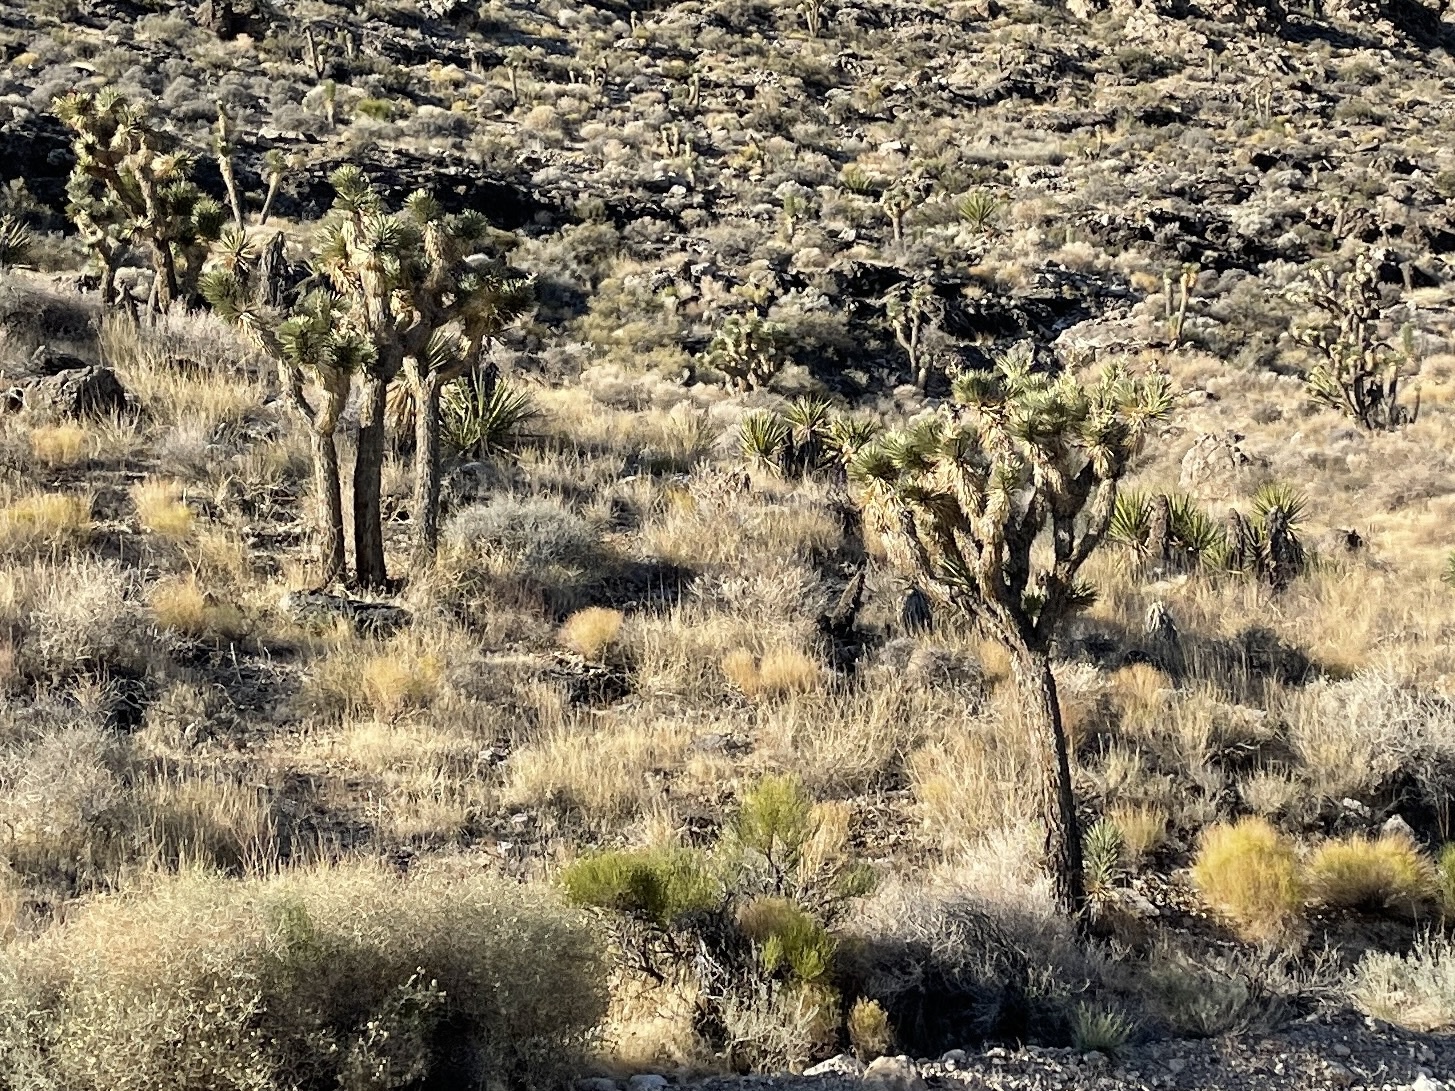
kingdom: Plantae
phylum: Tracheophyta
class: Liliopsida
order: Asparagales
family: Asparagaceae
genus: Yucca
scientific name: Yucca brevifolia
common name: Joshua tree
